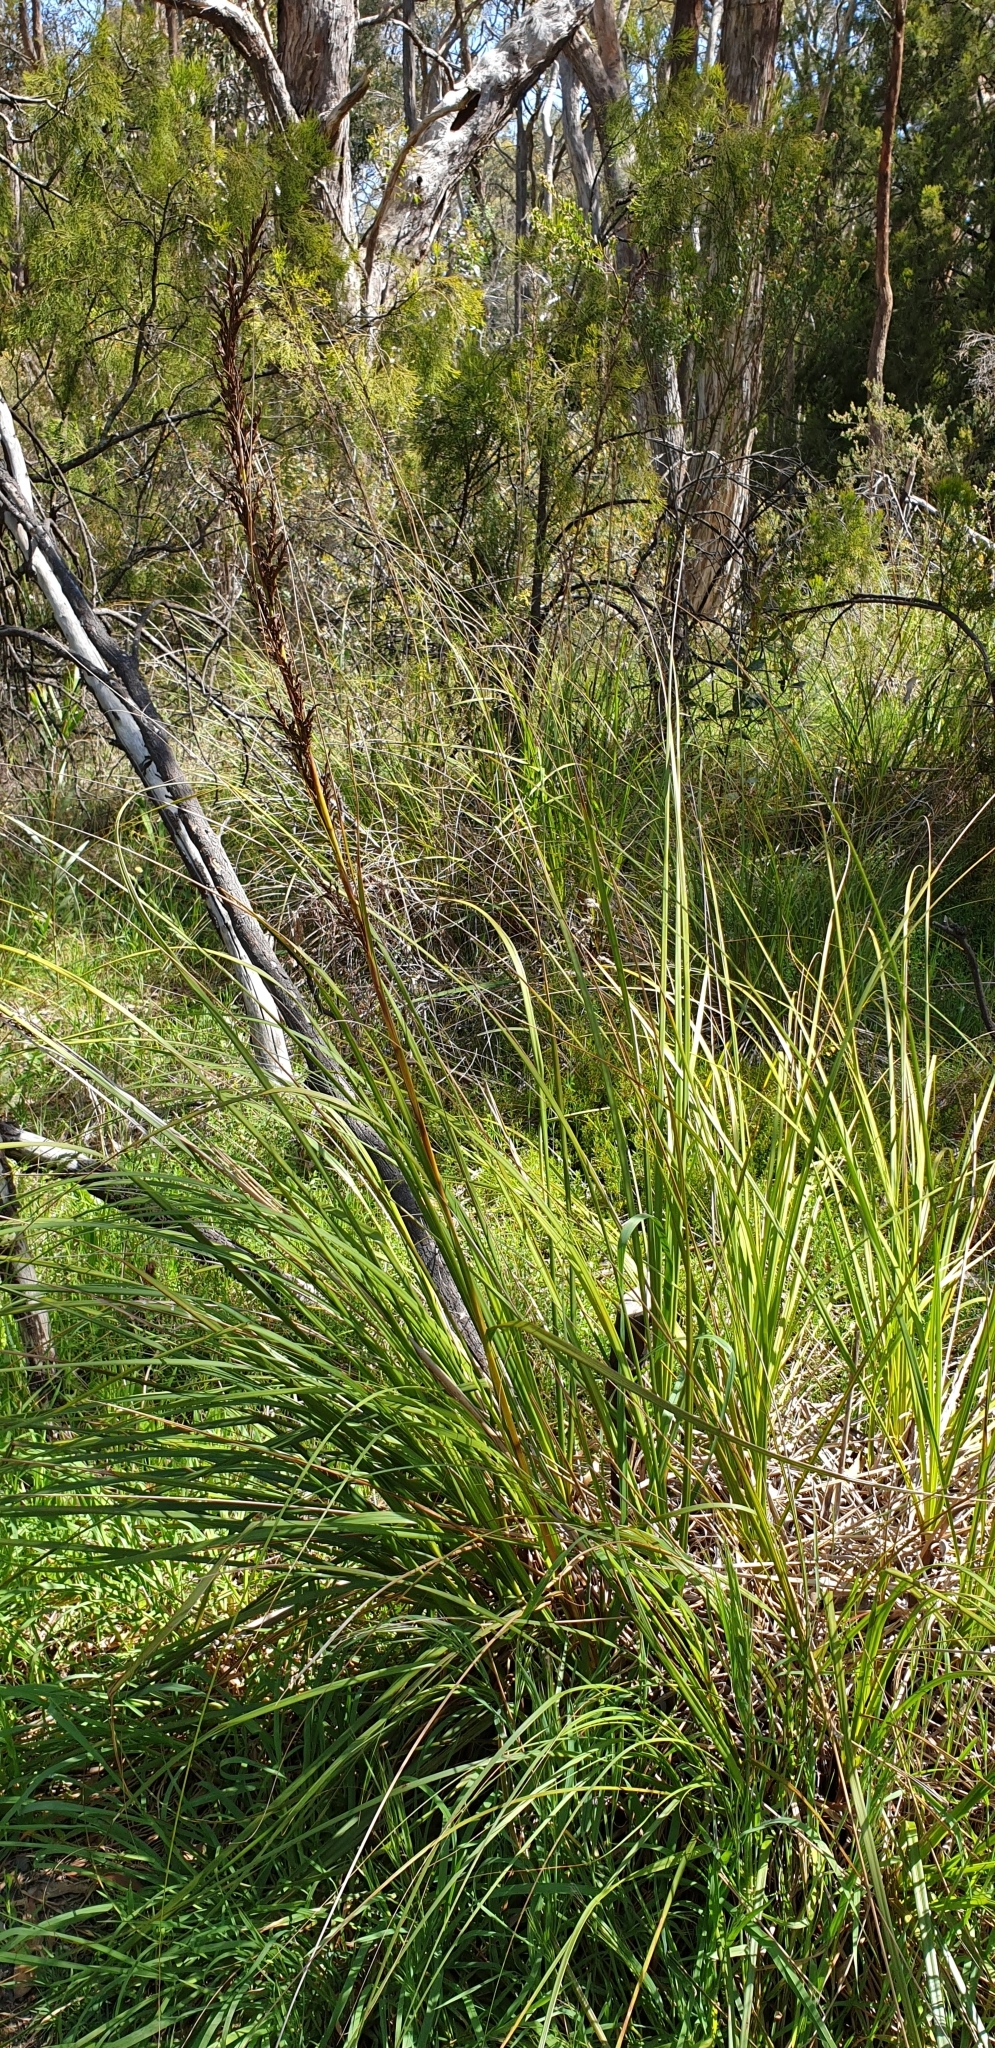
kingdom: Plantae
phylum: Tracheophyta
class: Liliopsida
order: Asparagales
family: Asparagaceae
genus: Lomandra
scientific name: Lomandra fibrata
